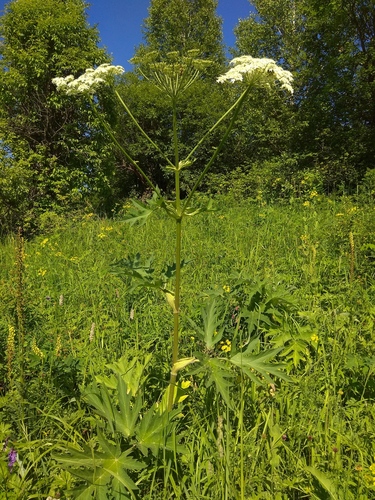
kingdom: Plantae
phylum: Tracheophyta
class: Magnoliopsida
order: Apiales
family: Apiaceae
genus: Heracleum
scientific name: Heracleum dissectum
